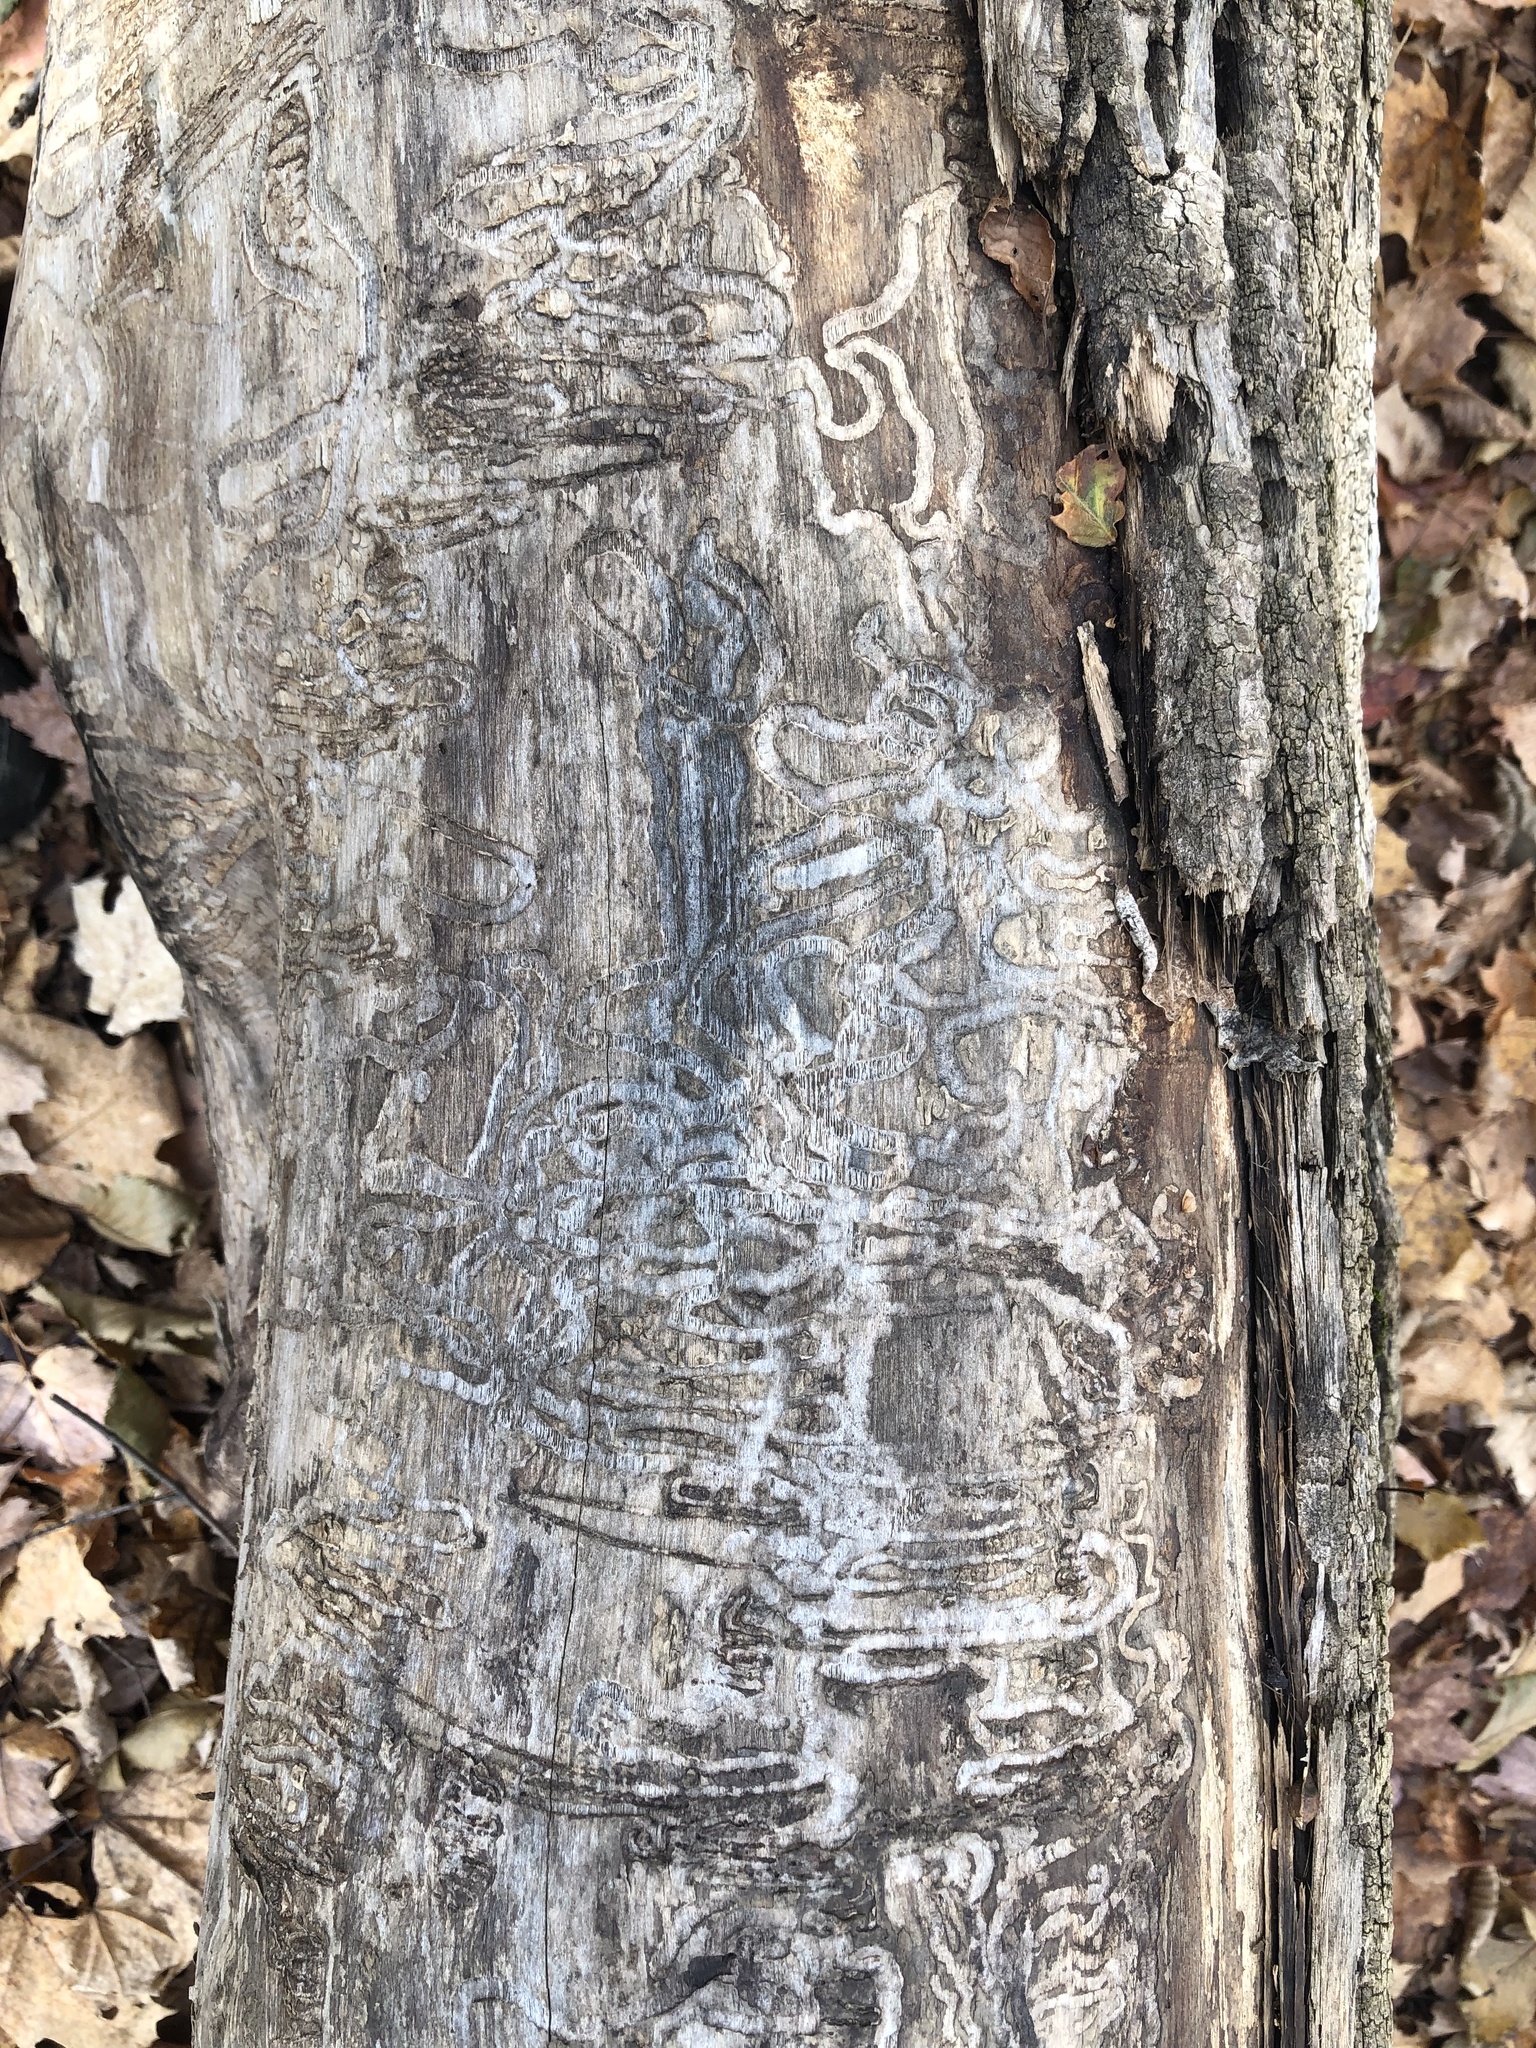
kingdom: Animalia
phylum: Arthropoda
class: Insecta
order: Coleoptera
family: Buprestidae
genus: Agrilus
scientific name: Agrilus planipennis
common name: Emerald ash borer
